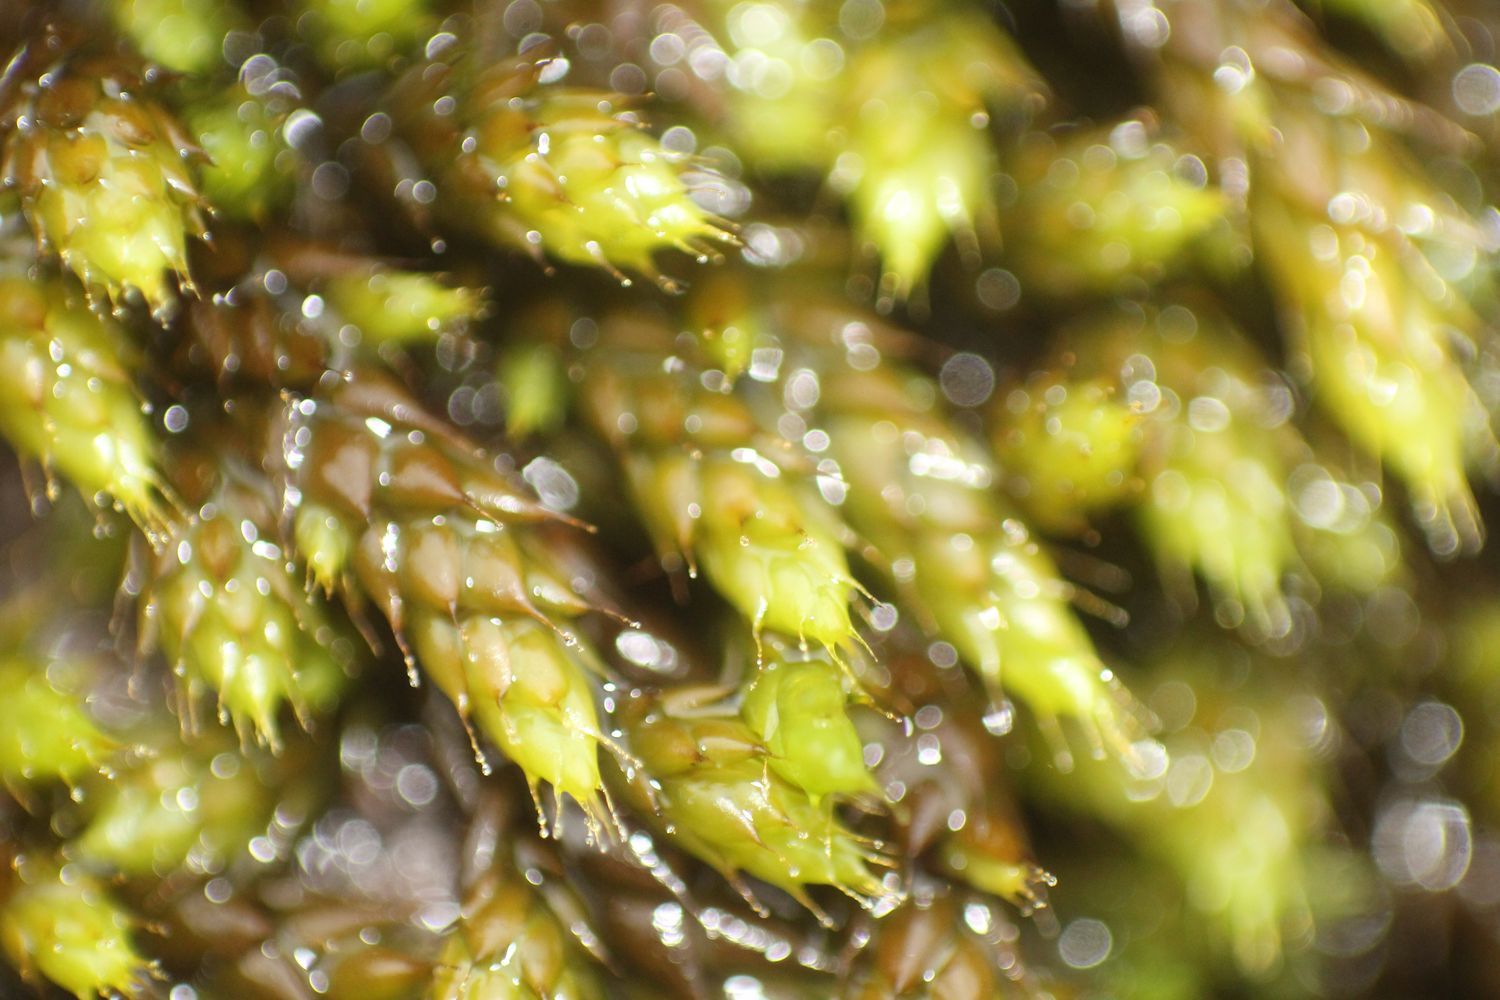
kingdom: Plantae
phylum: Bryophyta
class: Bryopsida
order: Hedwigiales
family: Hedwigiaceae
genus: Rhacocarpus
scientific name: Rhacocarpus purpurascens
